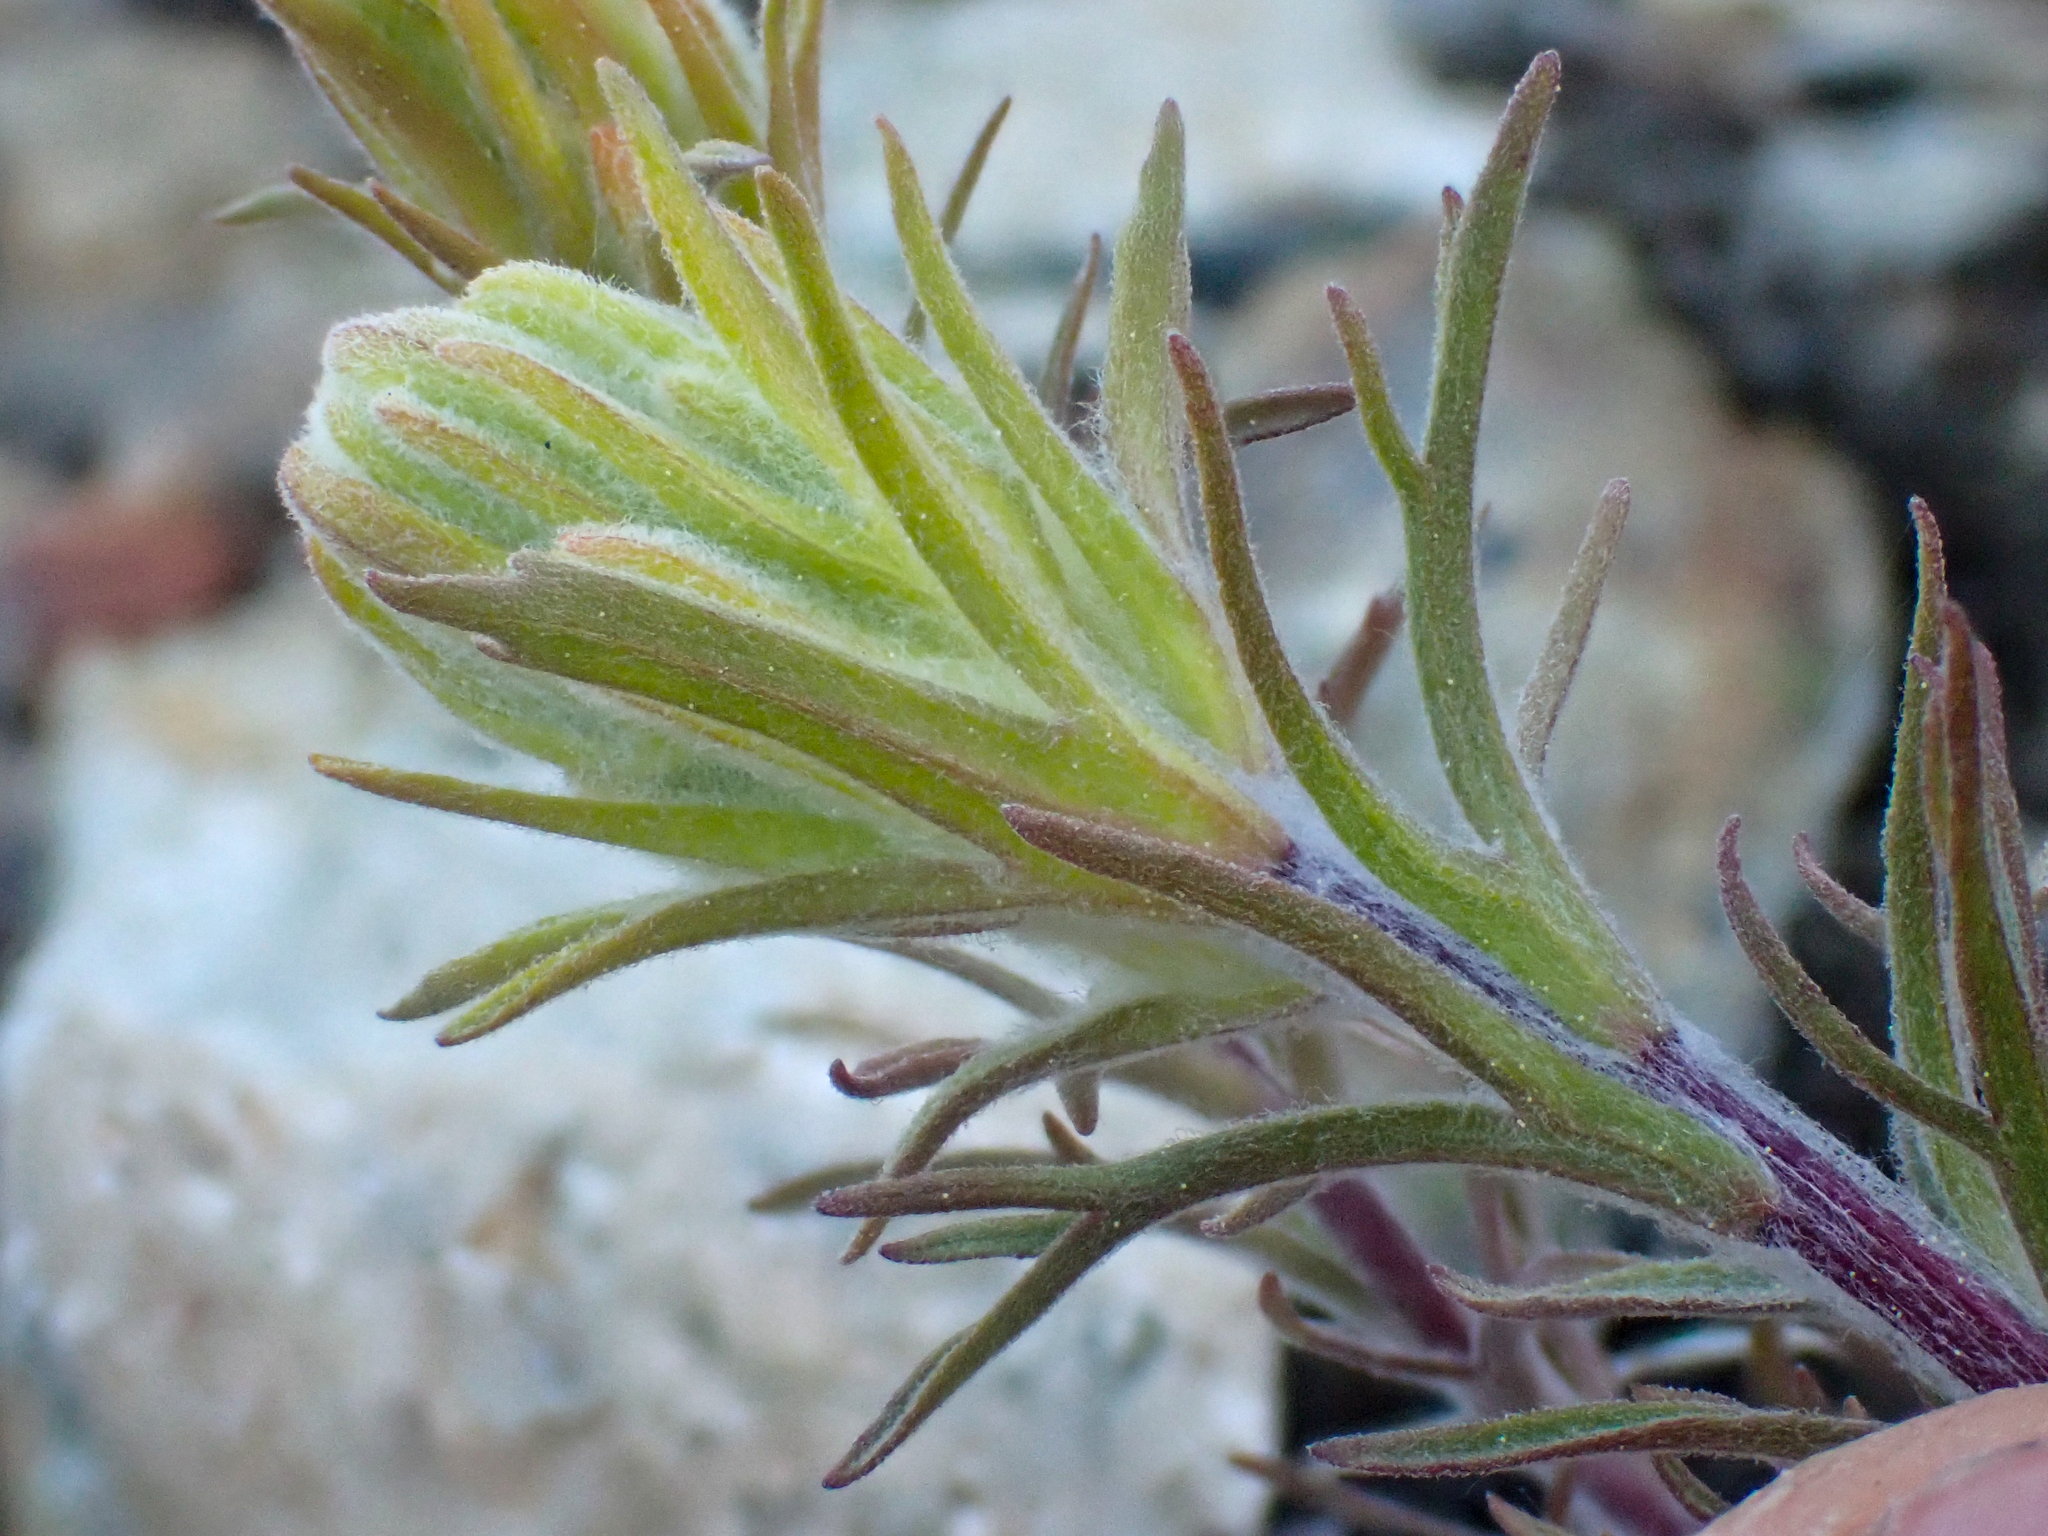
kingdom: Plantae
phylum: Tracheophyta
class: Magnoliopsida
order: Lamiales
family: Orobanchaceae
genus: Castilleja
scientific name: Castilleja arachnoidea
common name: Cobwebby indian paintbrush
